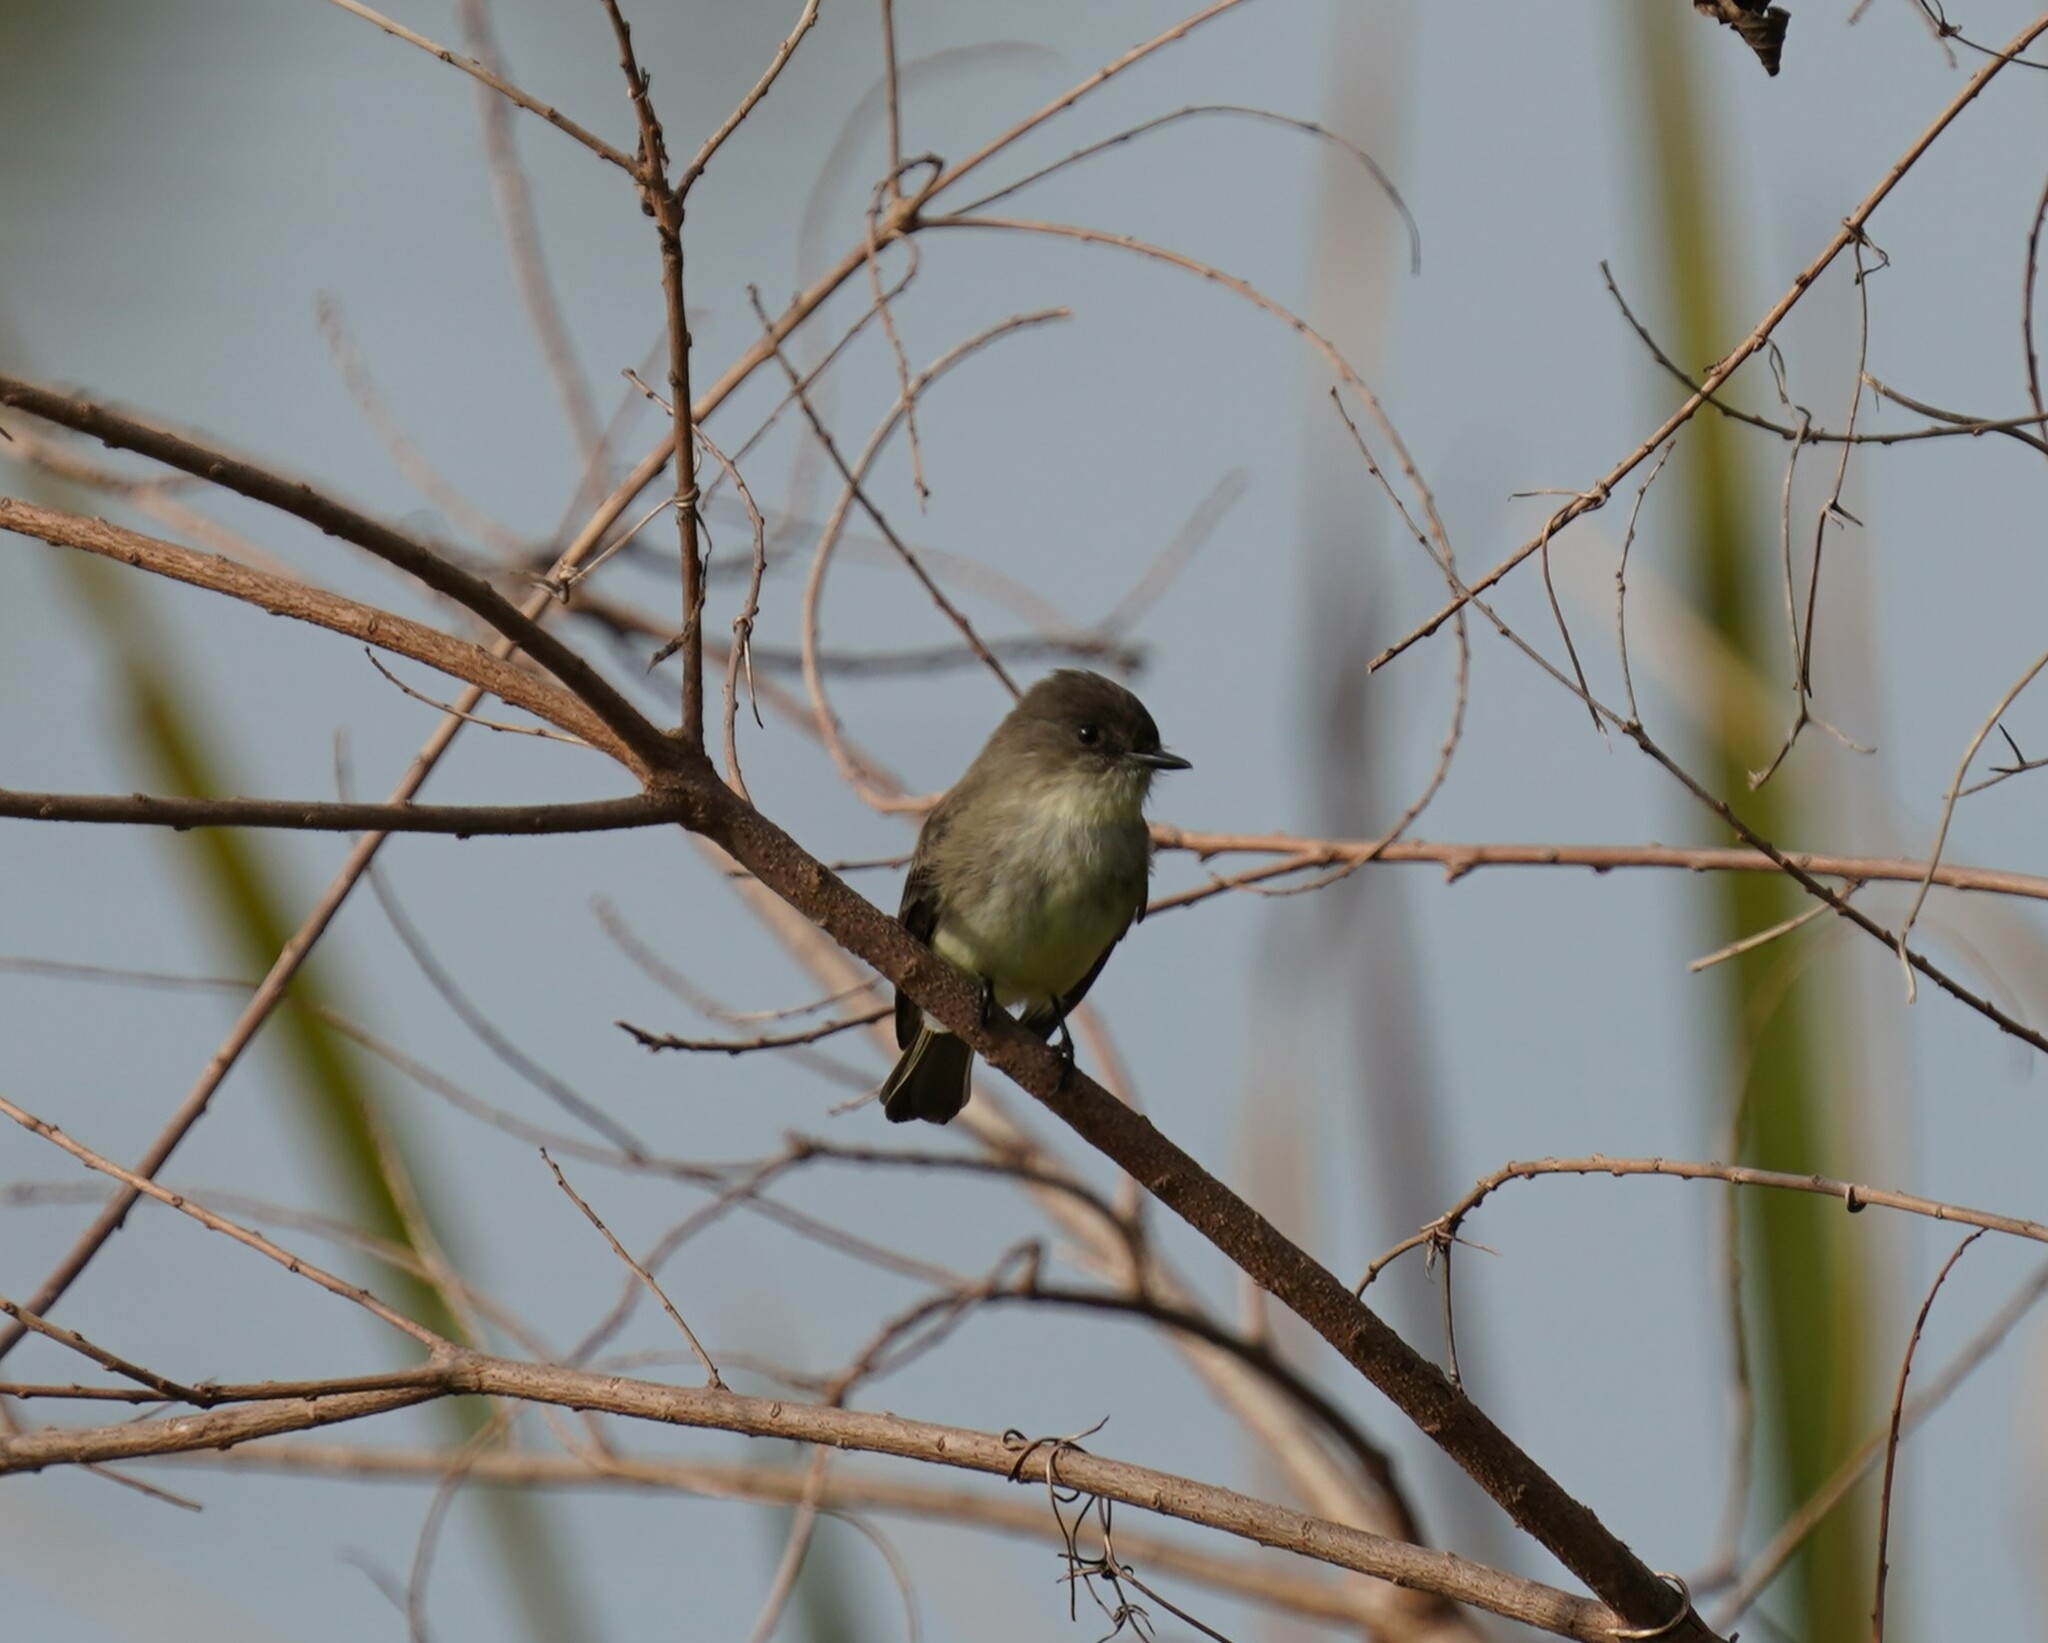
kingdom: Animalia
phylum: Chordata
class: Aves
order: Passeriformes
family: Tyrannidae
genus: Sayornis
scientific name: Sayornis phoebe
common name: Eastern phoebe
